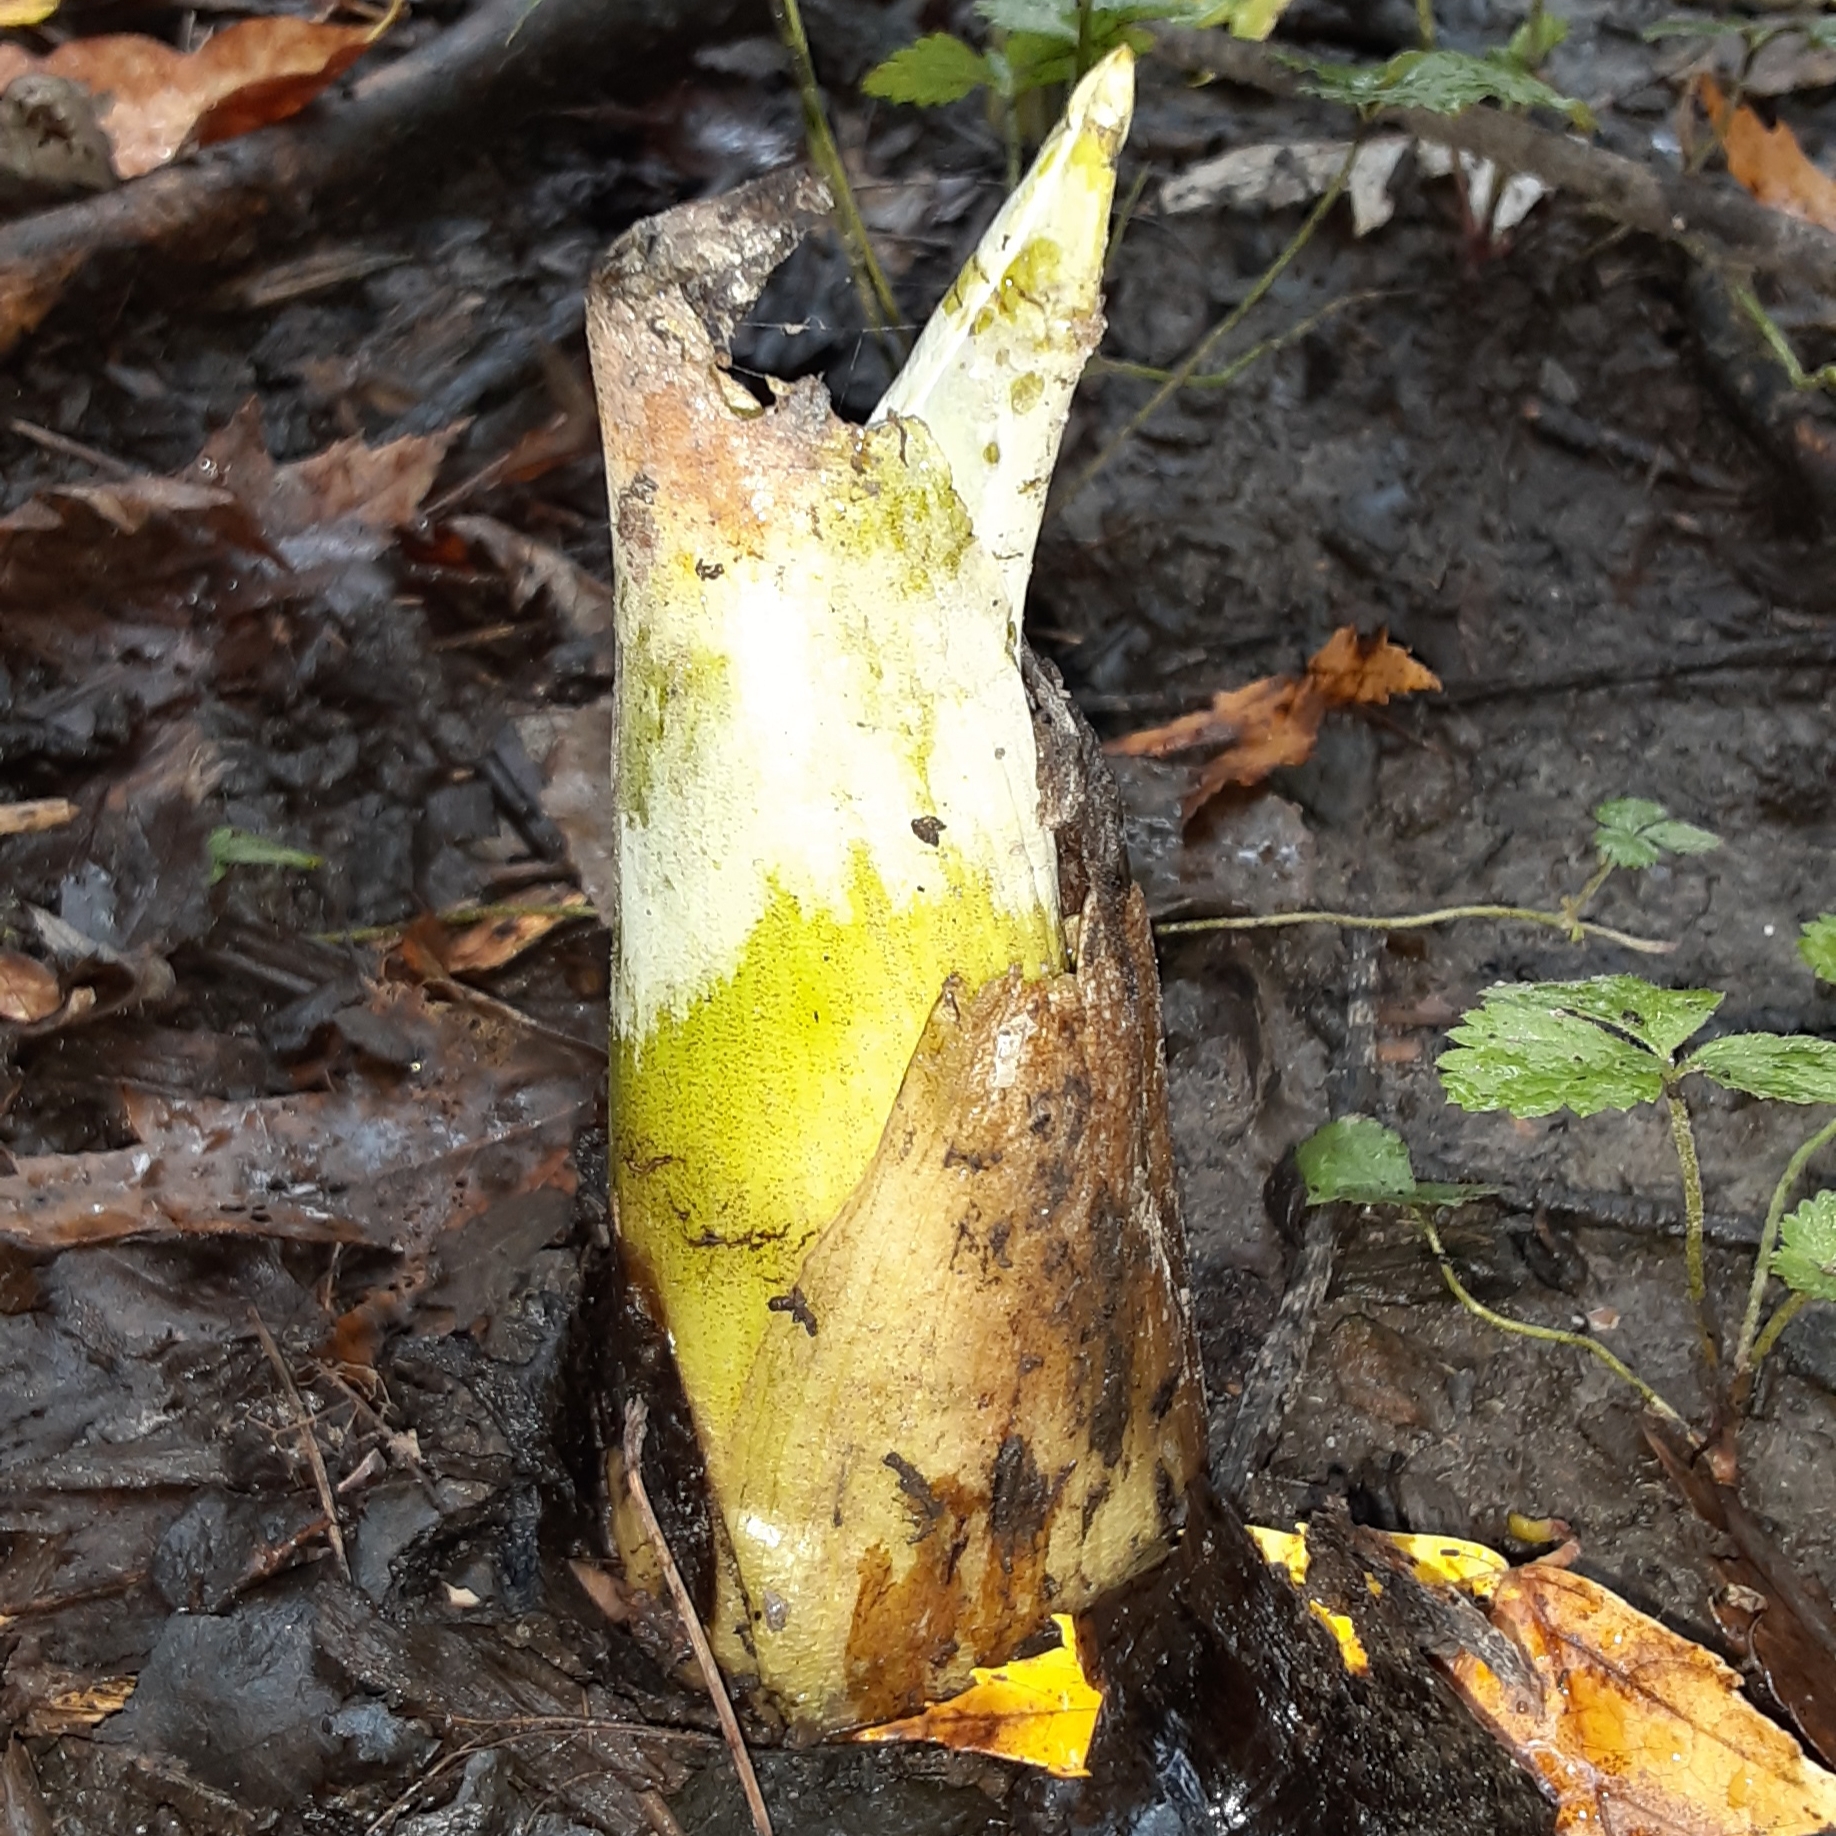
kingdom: Plantae
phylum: Tracheophyta
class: Liliopsida
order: Alismatales
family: Araceae
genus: Symplocarpus
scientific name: Symplocarpus foetidus
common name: Eastern skunk cabbage
